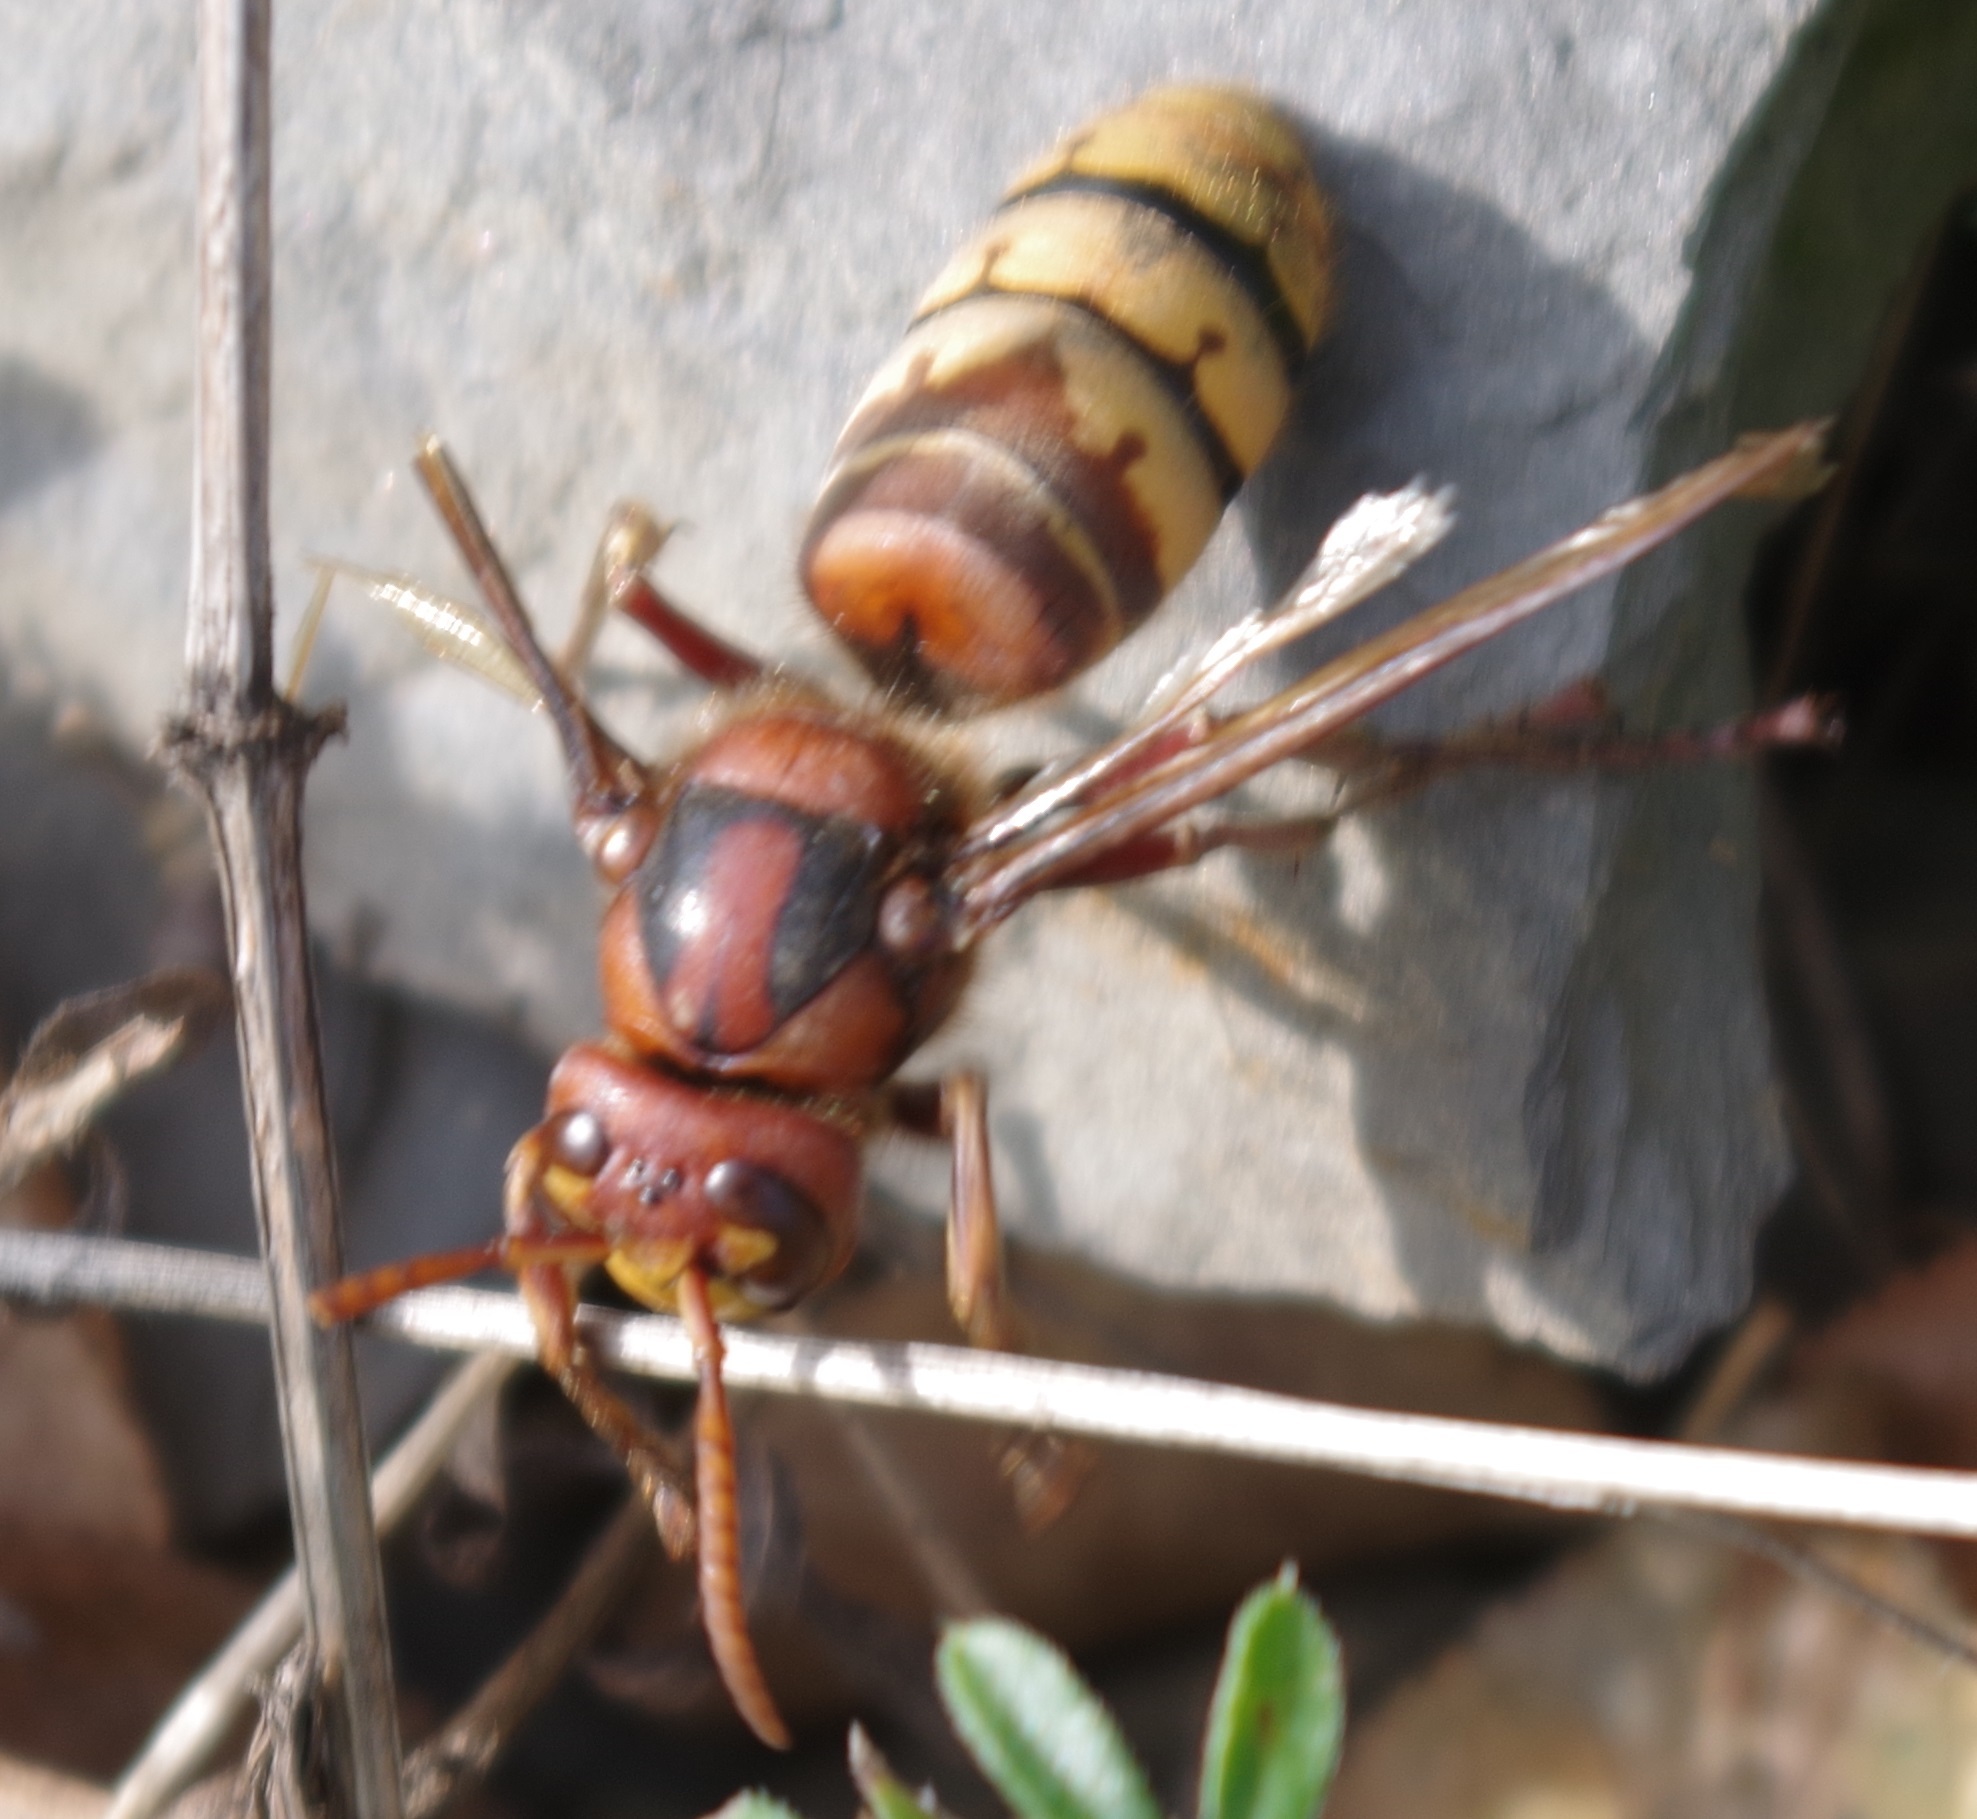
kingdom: Animalia
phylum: Arthropoda
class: Insecta
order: Hymenoptera
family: Vespidae
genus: Vespa
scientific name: Vespa crabro
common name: Hornet
